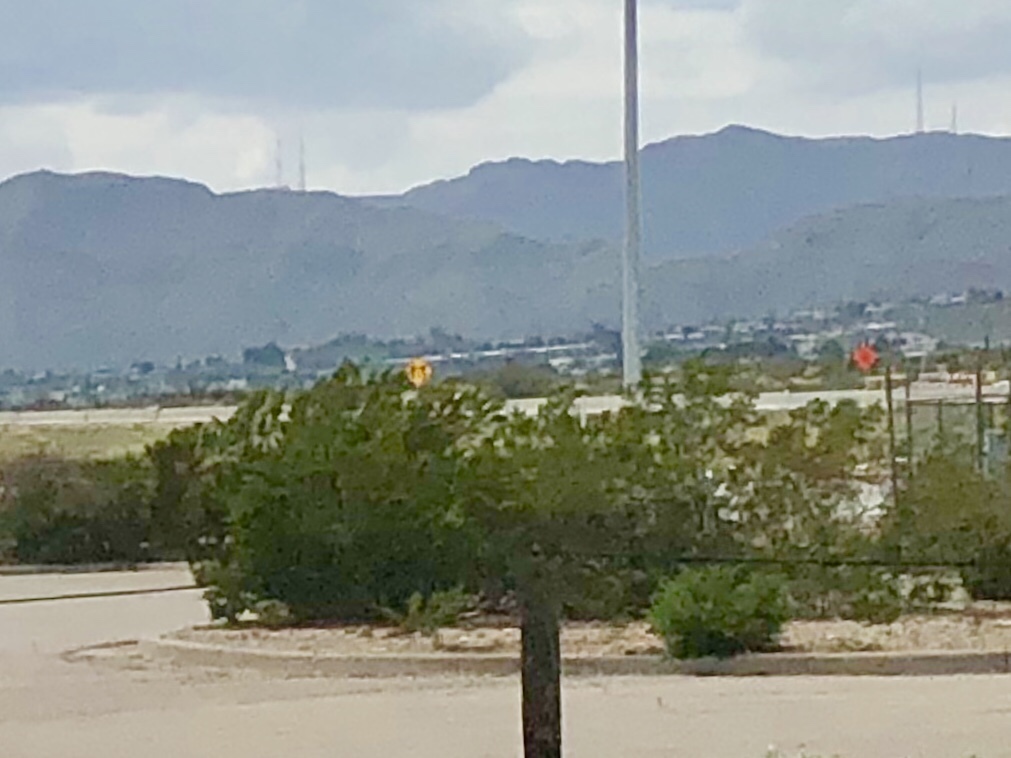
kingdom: Plantae
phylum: Tracheophyta
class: Magnoliopsida
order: Zygophyllales
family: Zygophyllaceae
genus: Larrea
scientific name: Larrea tridentata
